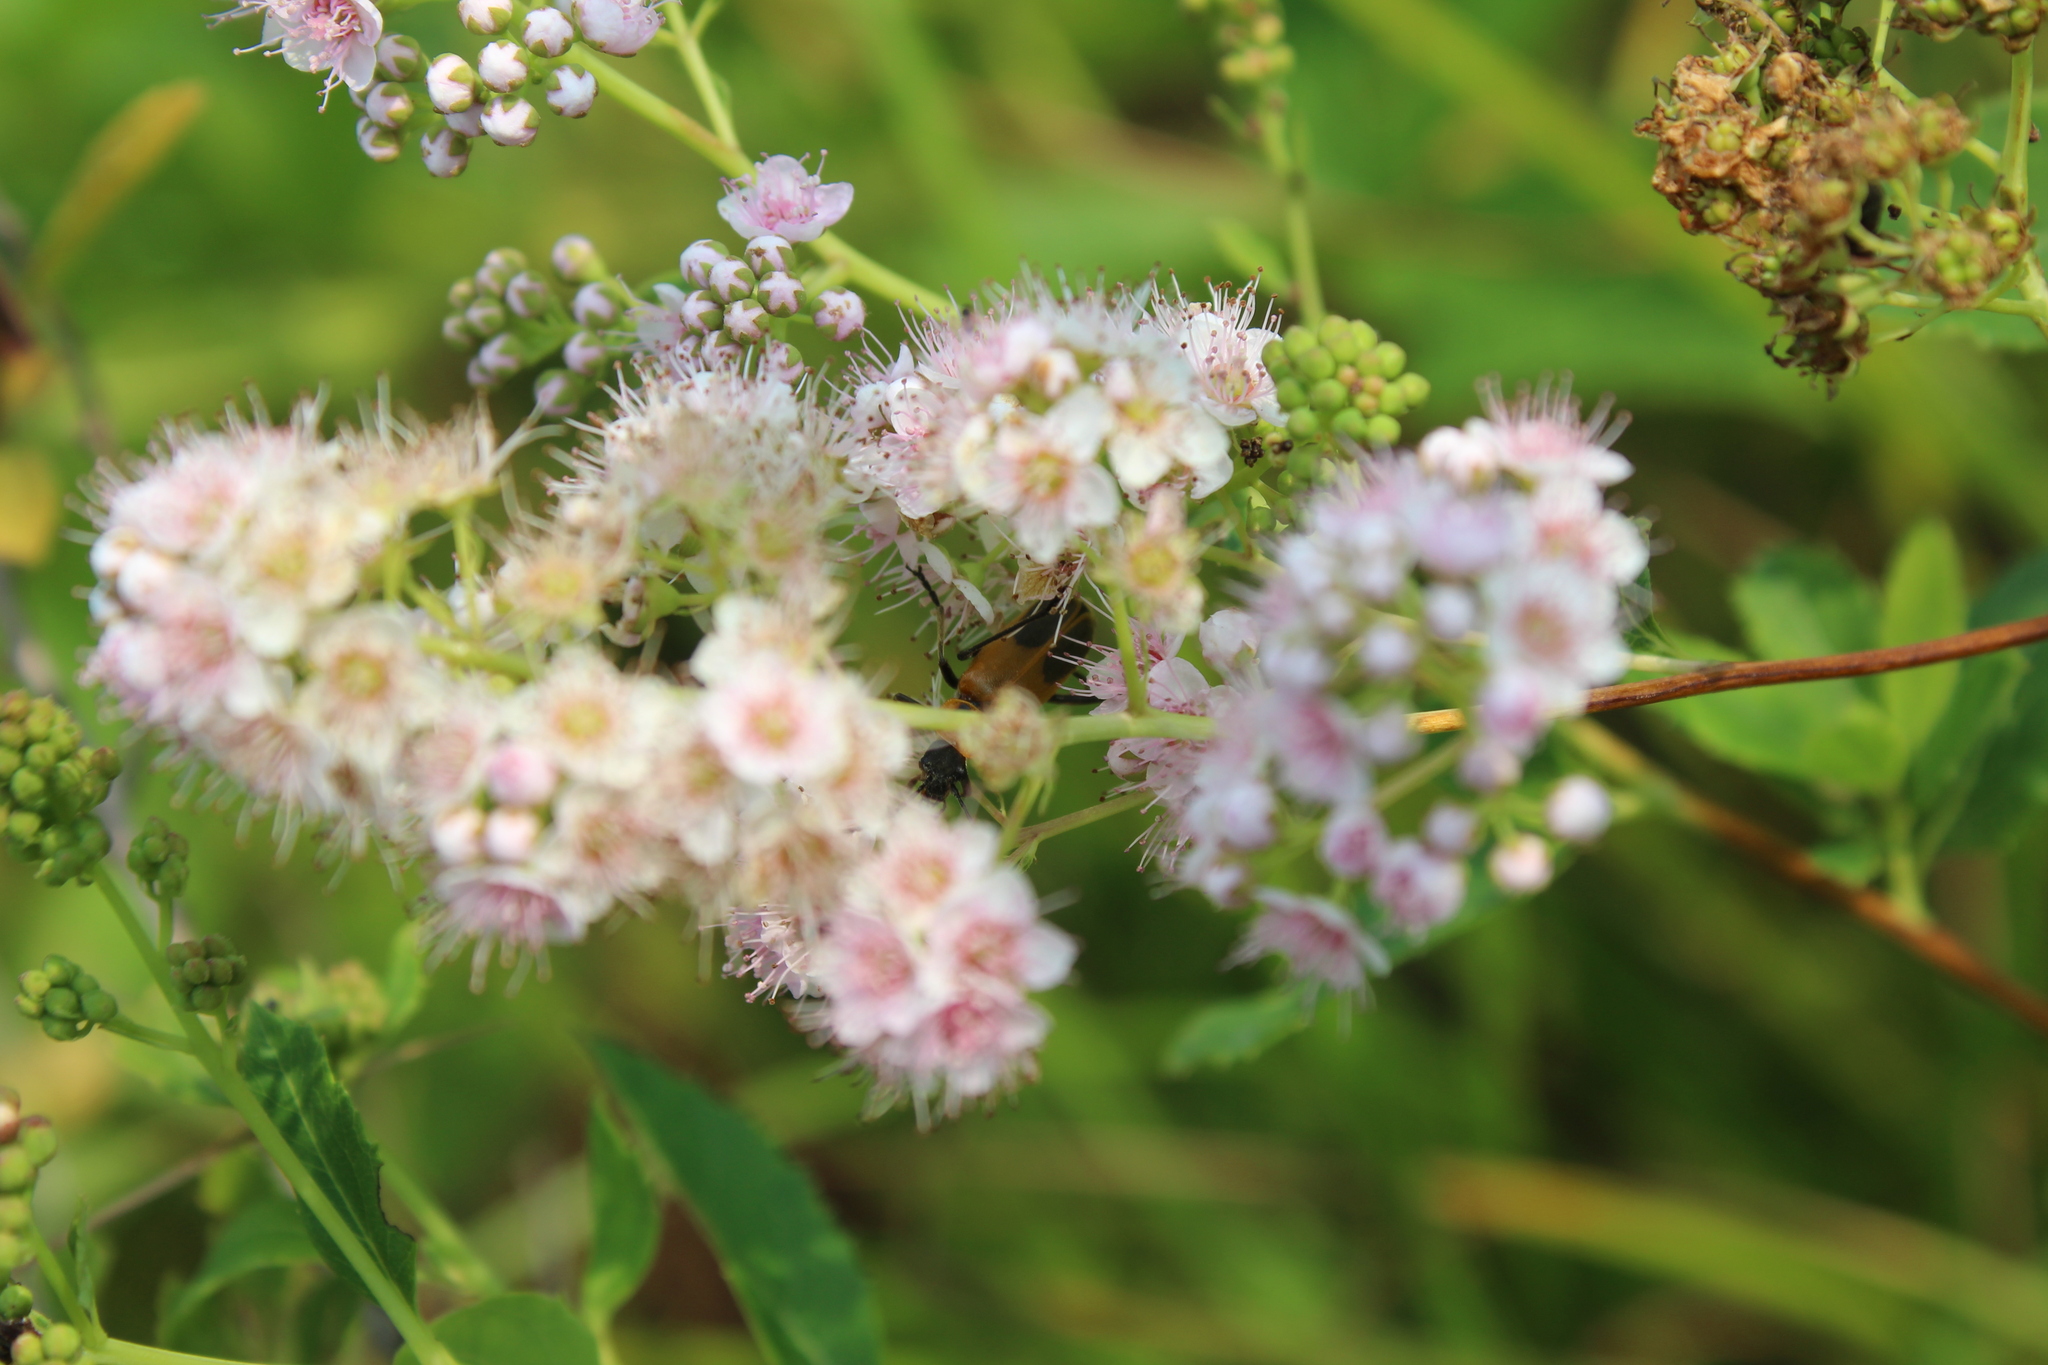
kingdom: Animalia
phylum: Arthropoda
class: Insecta
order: Coleoptera
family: Cantharidae
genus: Chauliognathus
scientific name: Chauliognathus pensylvanicus
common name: Goldenrod soldier beetle
